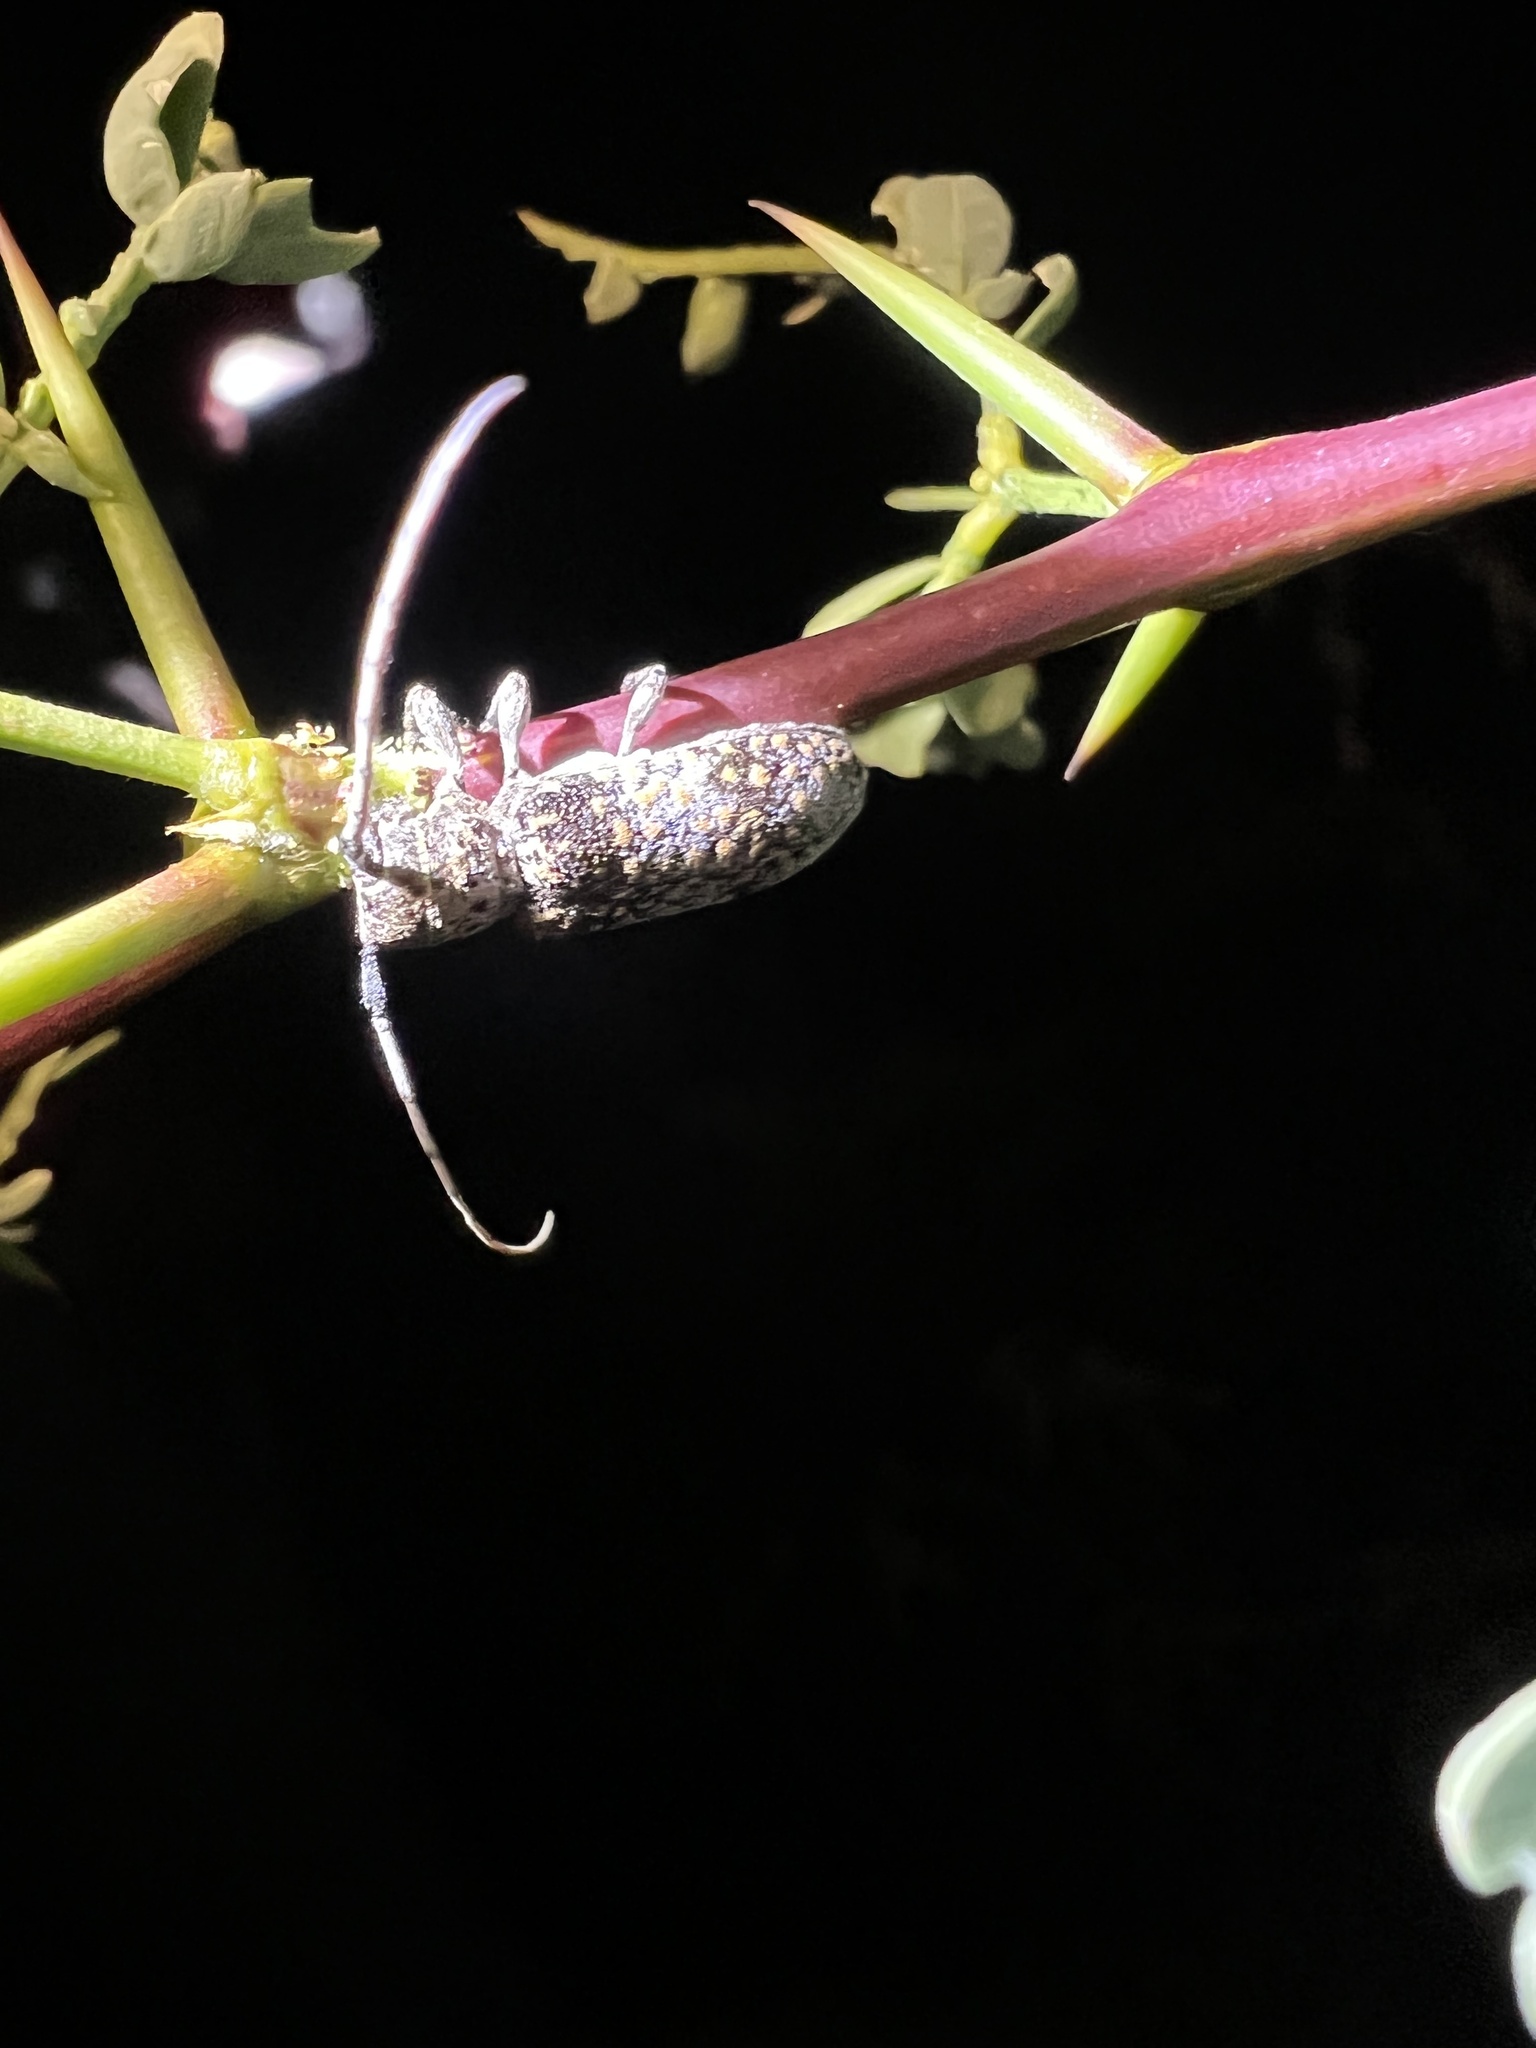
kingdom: Animalia
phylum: Arthropoda
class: Insecta
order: Coleoptera
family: Cerambycidae
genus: Oncideres
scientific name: Oncideres rhodosticta
